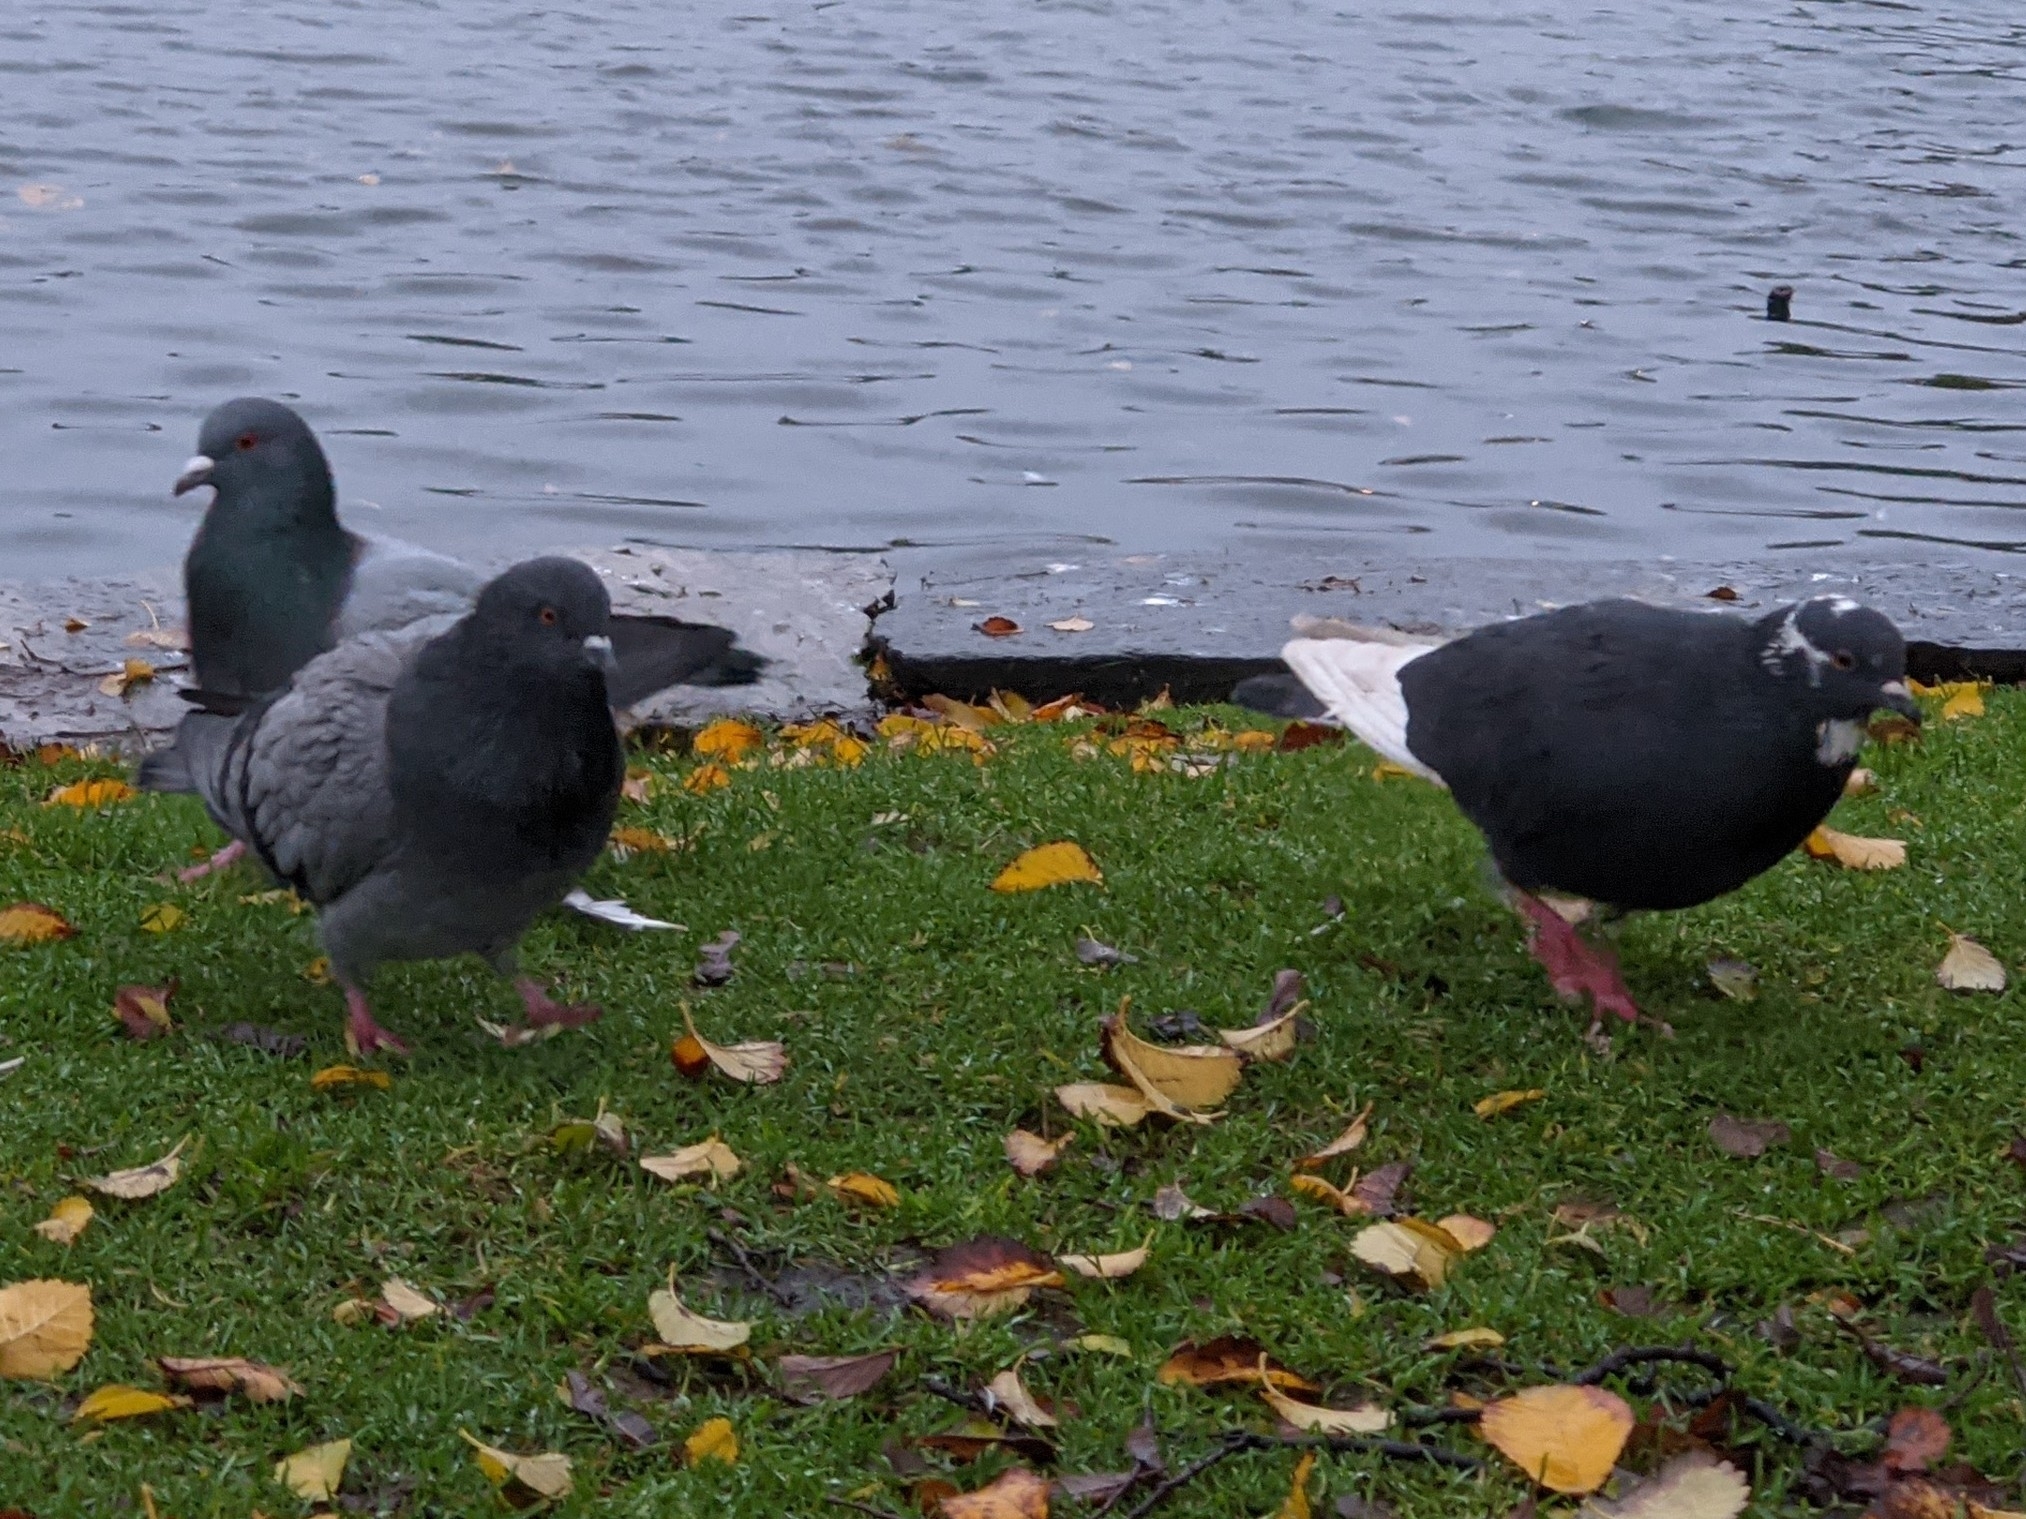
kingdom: Animalia
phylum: Chordata
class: Aves
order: Columbiformes
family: Columbidae
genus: Columba
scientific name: Columba livia
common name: Rock pigeon
